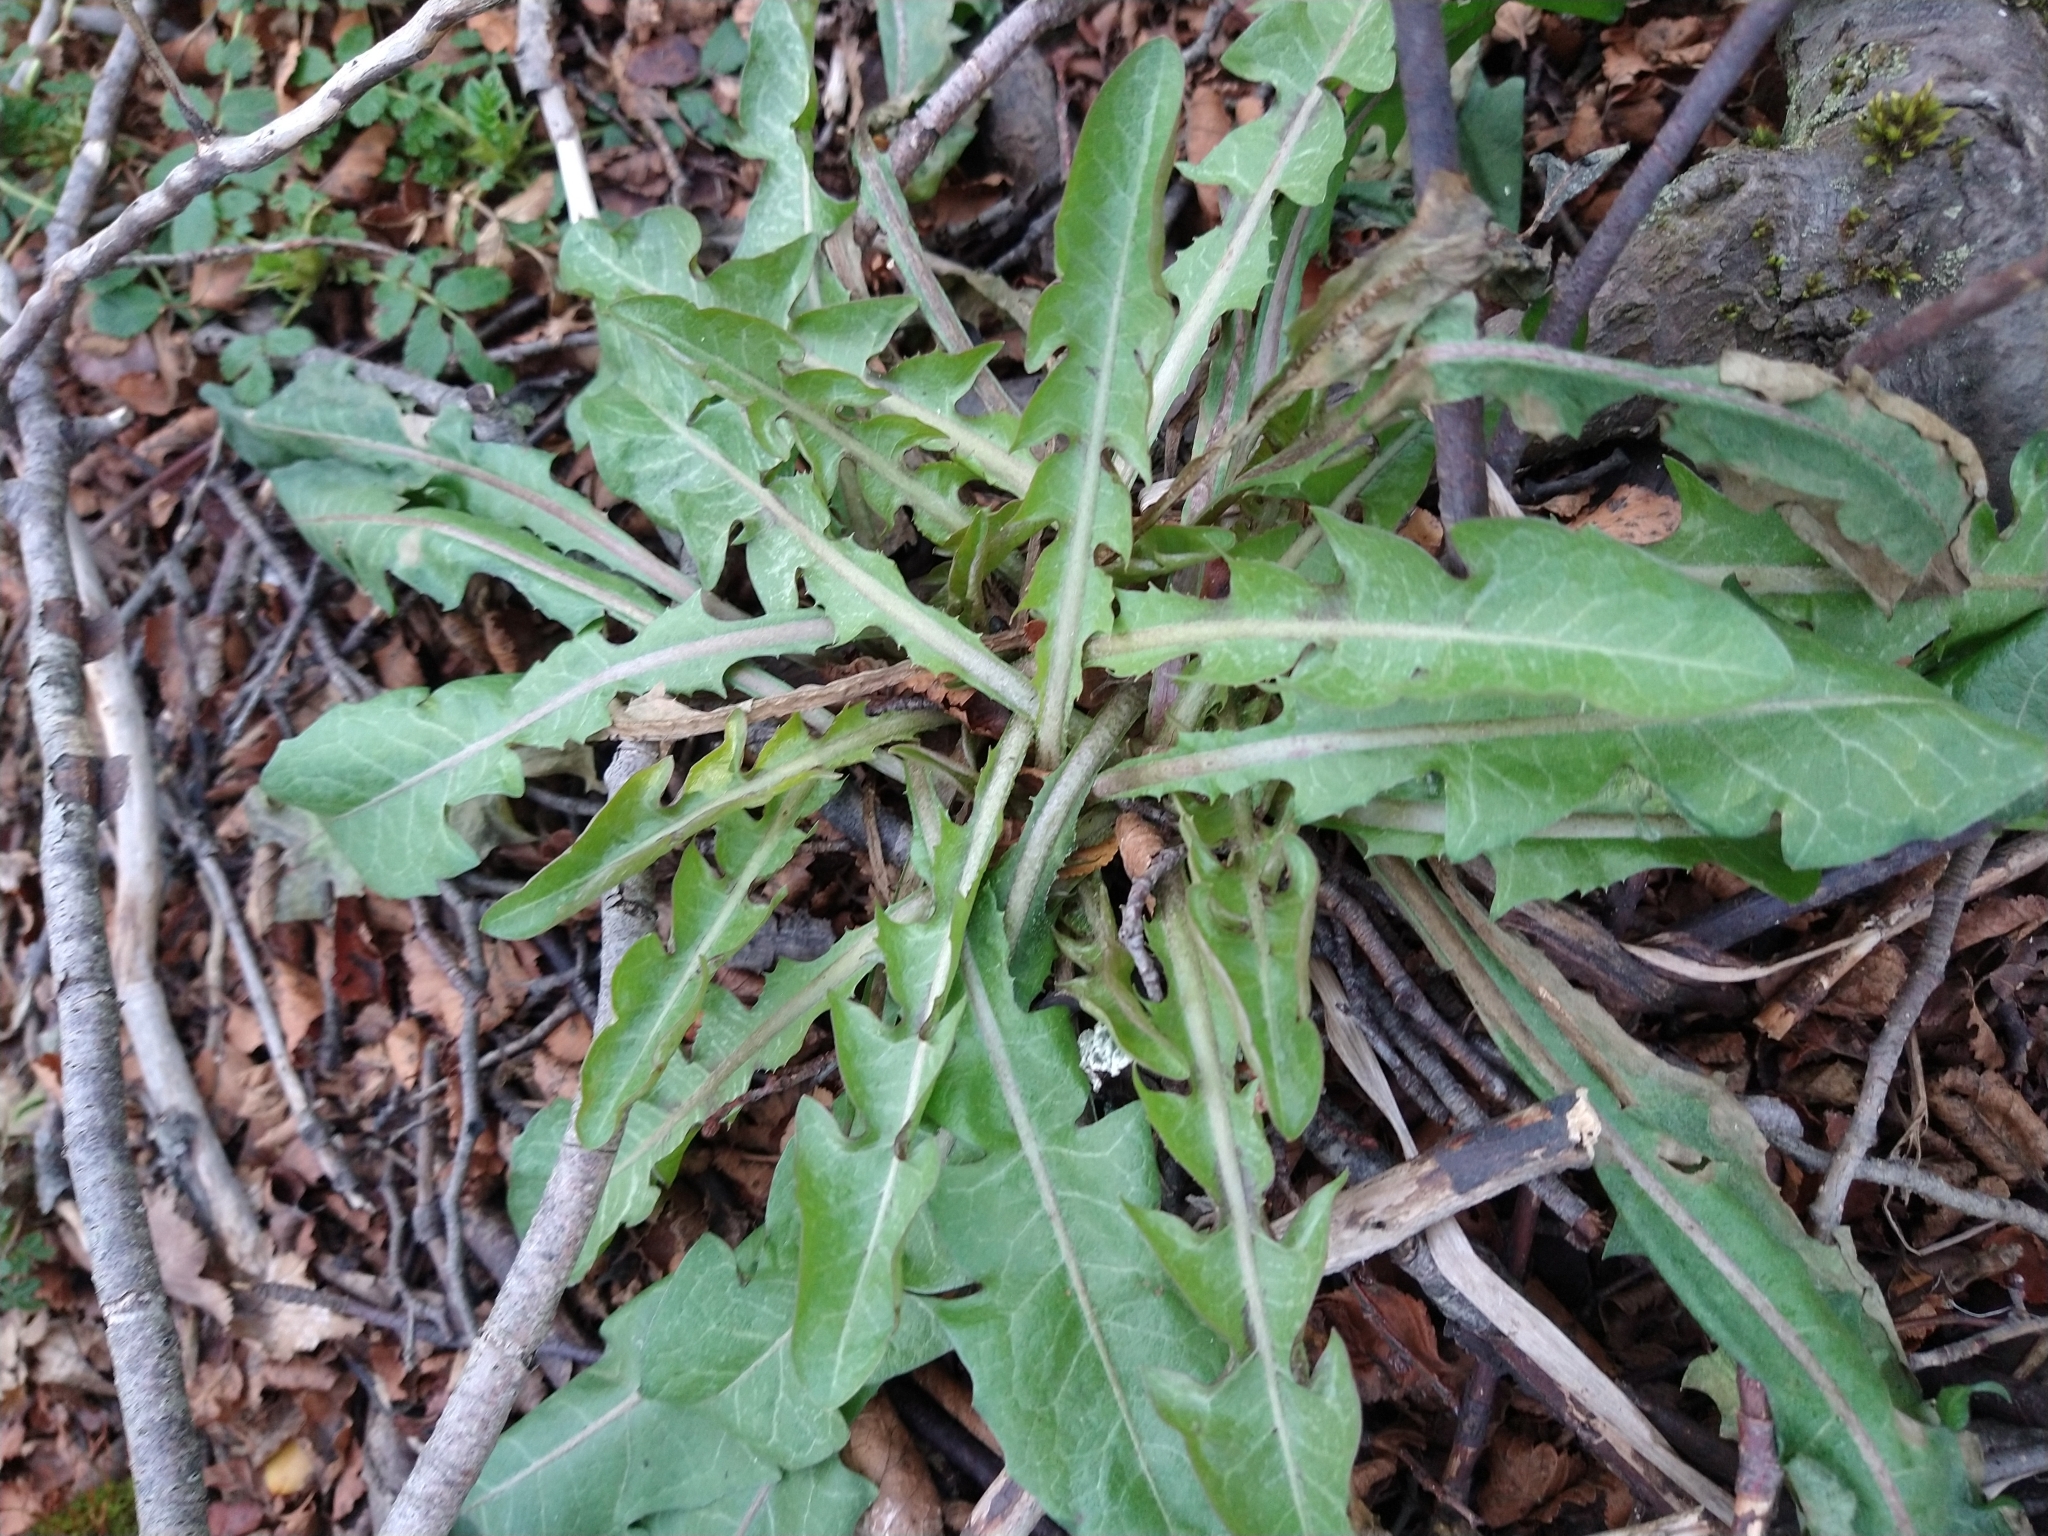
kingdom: Plantae
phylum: Tracheophyta
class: Magnoliopsida
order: Asterales
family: Asteraceae
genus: Taraxacum
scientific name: Taraxacum officinale
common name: Common dandelion
